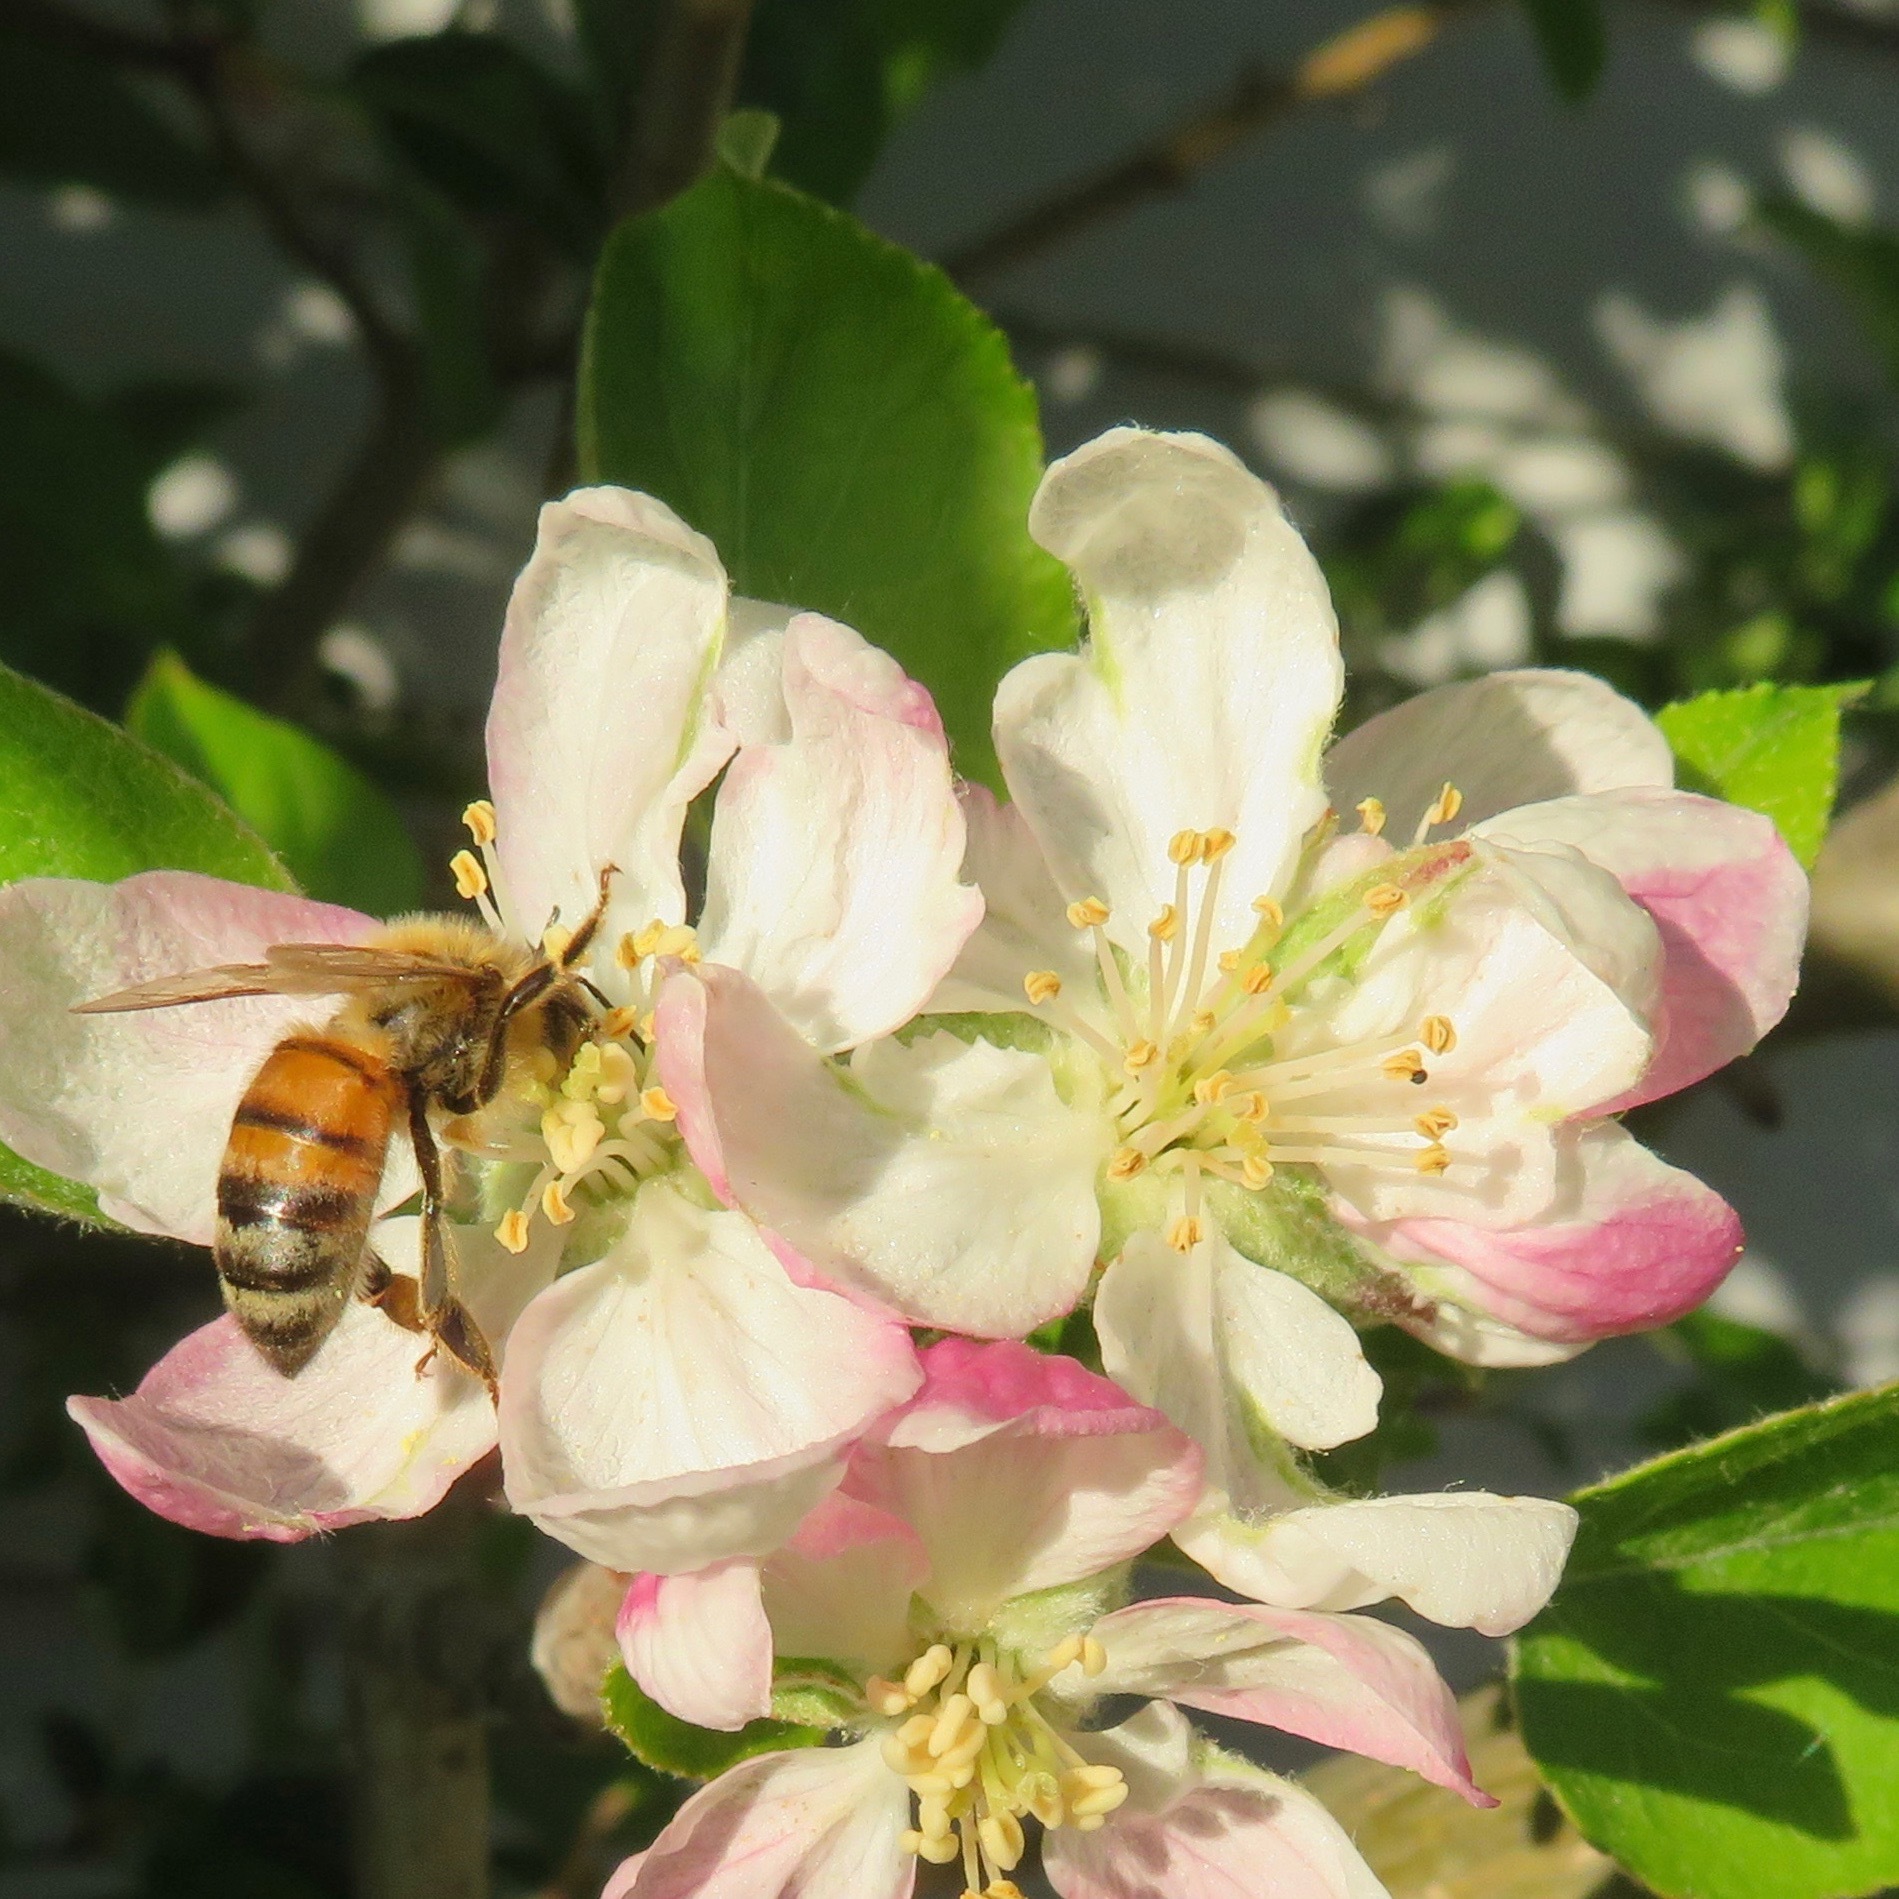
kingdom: Animalia
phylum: Arthropoda
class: Insecta
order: Hymenoptera
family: Apidae
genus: Apis
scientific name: Apis mellifera
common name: Honey bee
